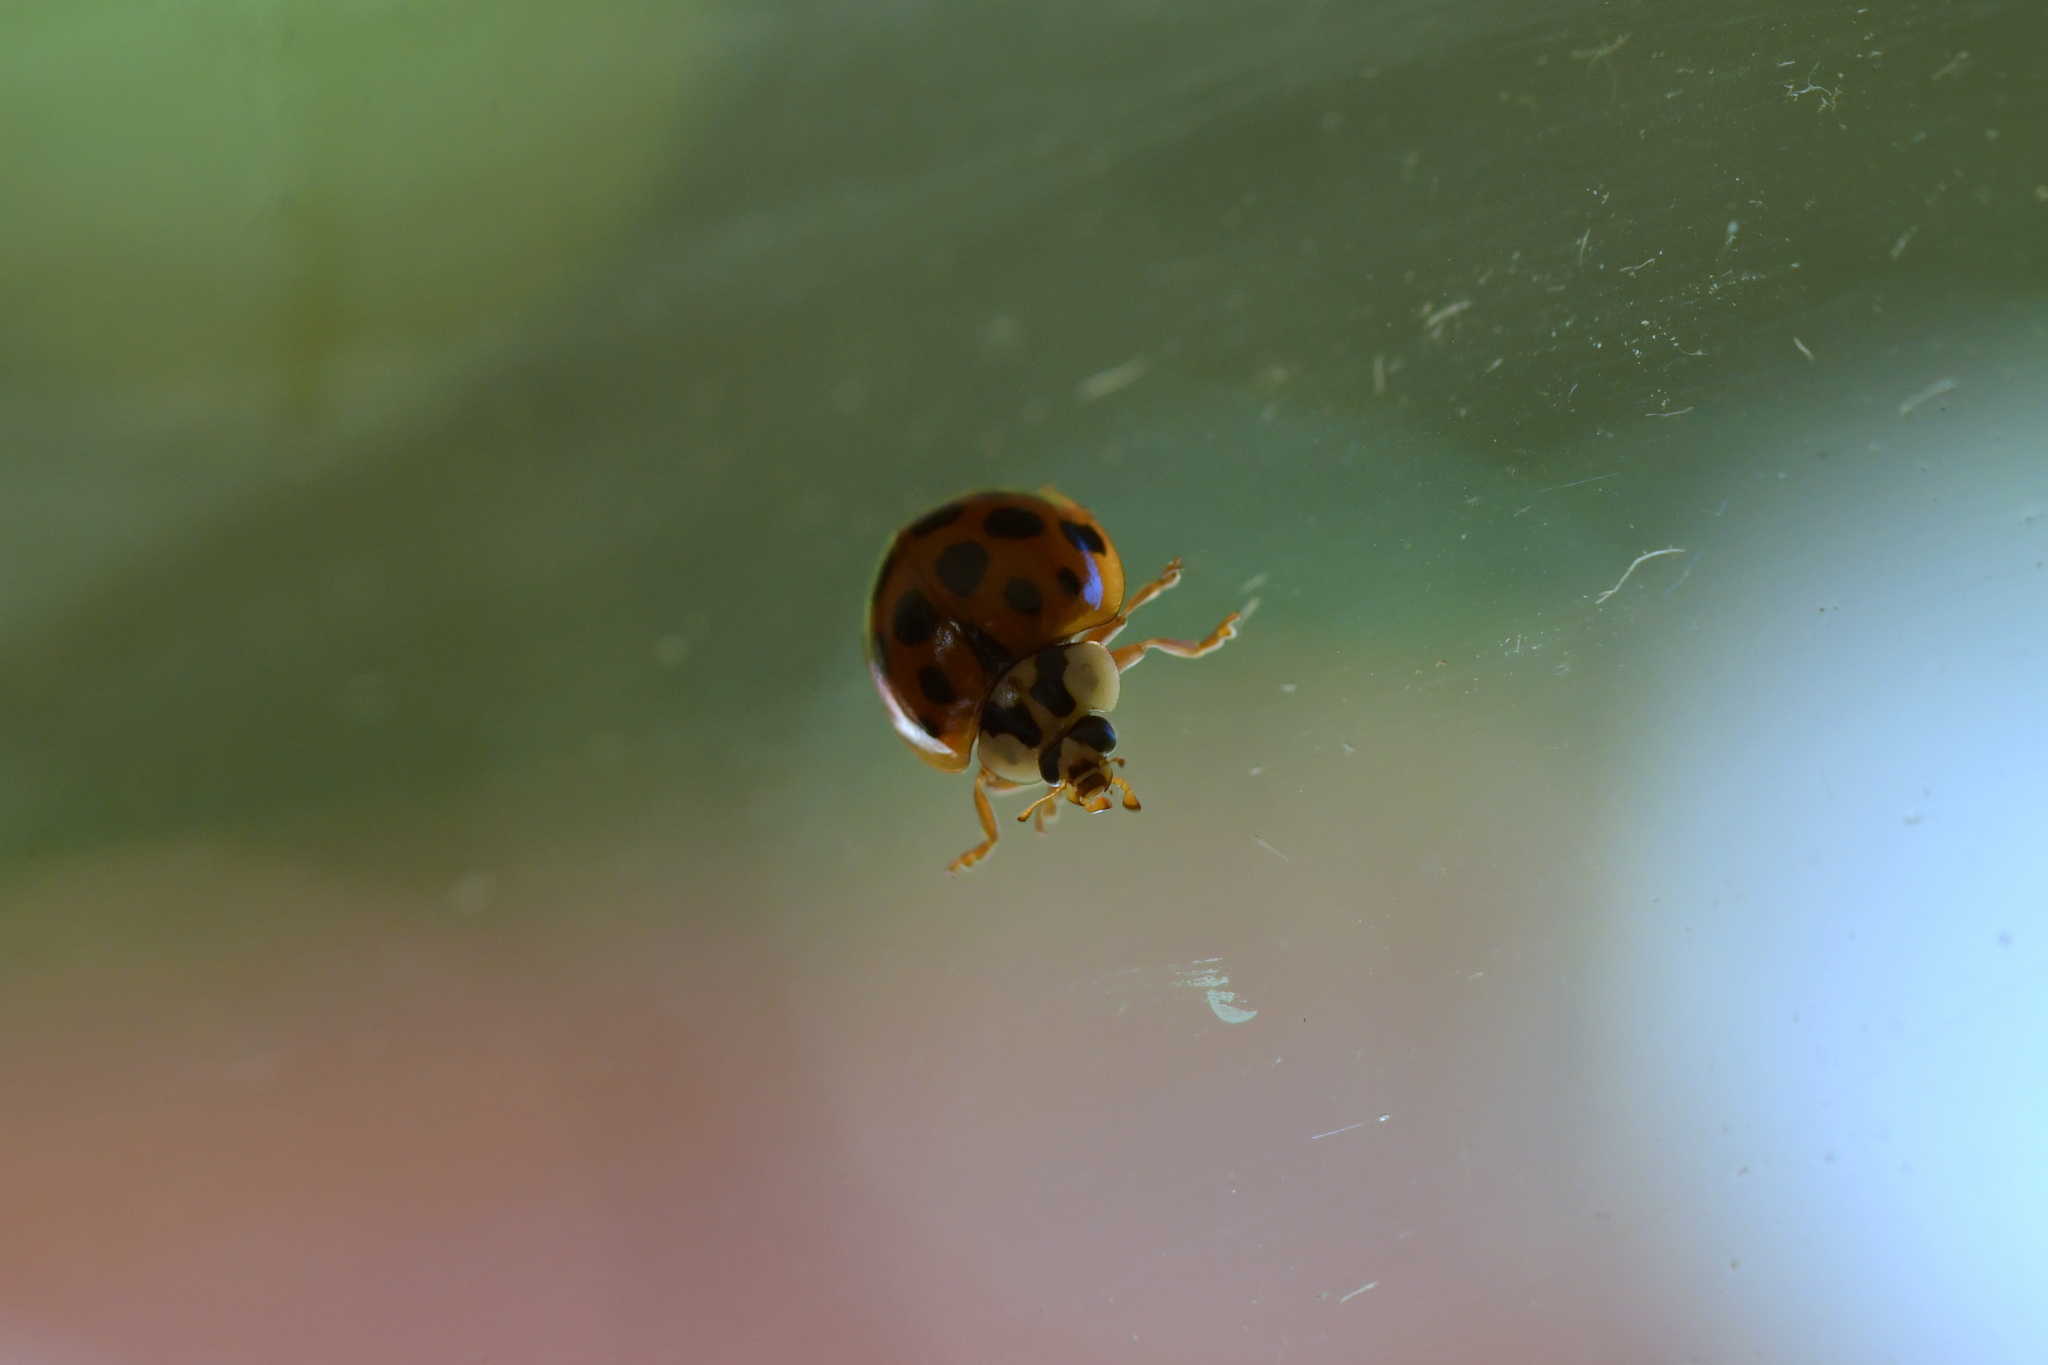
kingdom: Animalia
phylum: Arthropoda
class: Insecta
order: Coleoptera
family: Coccinellidae
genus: Harmonia
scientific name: Harmonia axyridis
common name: Harlequin ladybird
